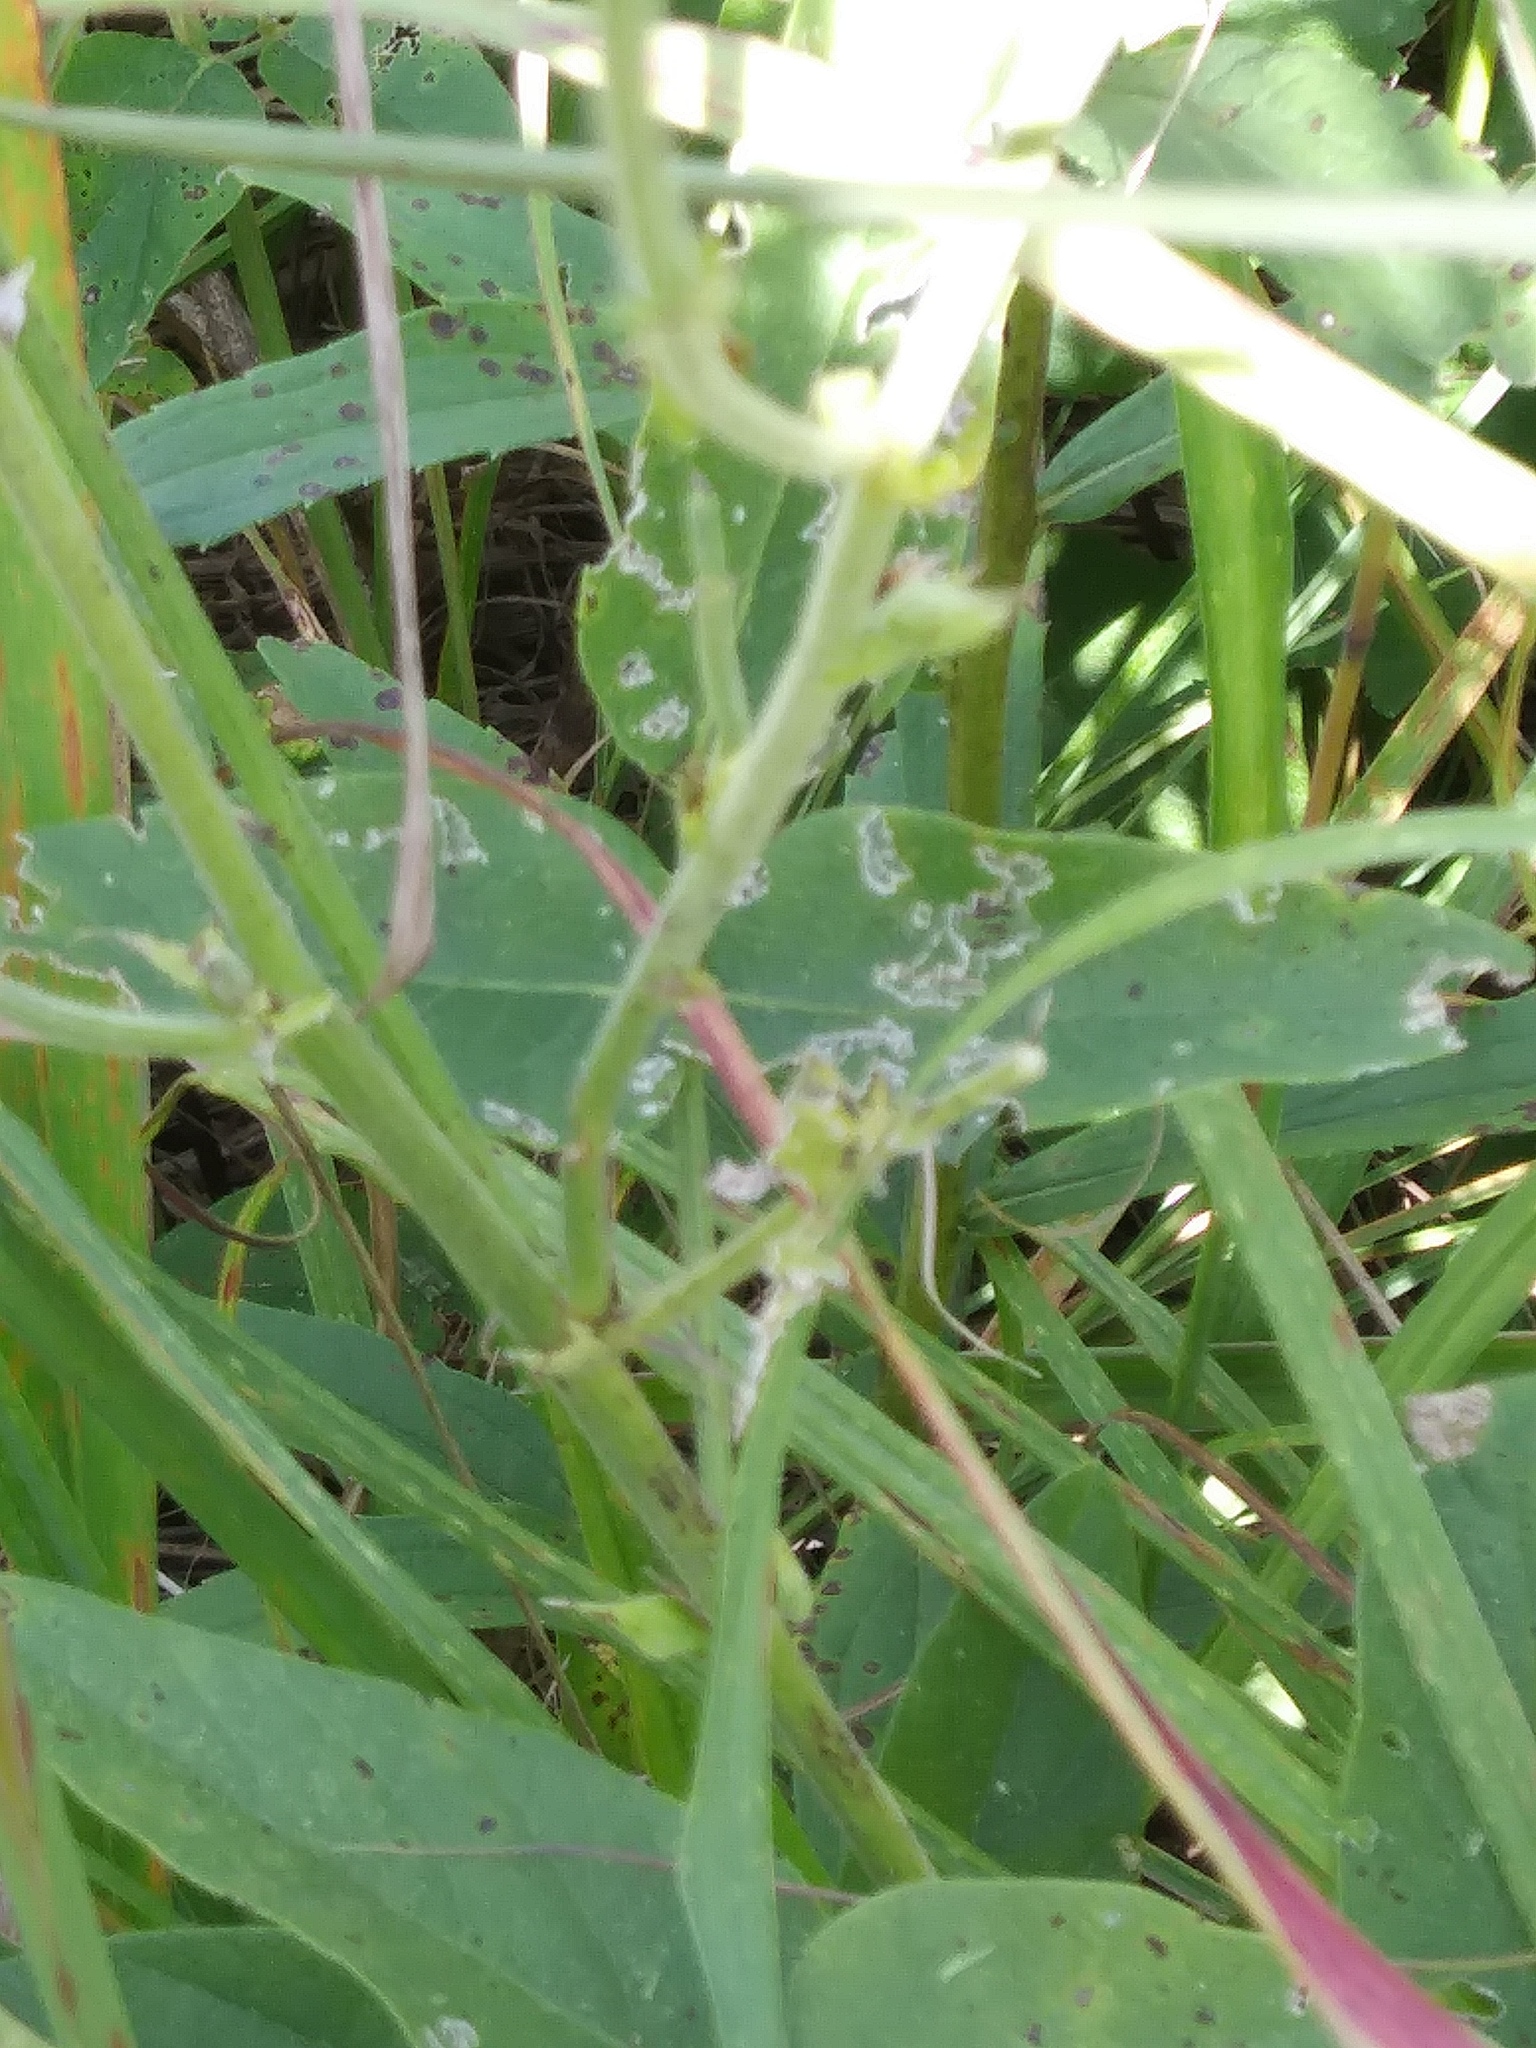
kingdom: Plantae
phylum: Tracheophyta
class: Magnoliopsida
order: Fabales
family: Fabaceae
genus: Desmodium
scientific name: Desmodium illinoense
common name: Illinois tick-clover
